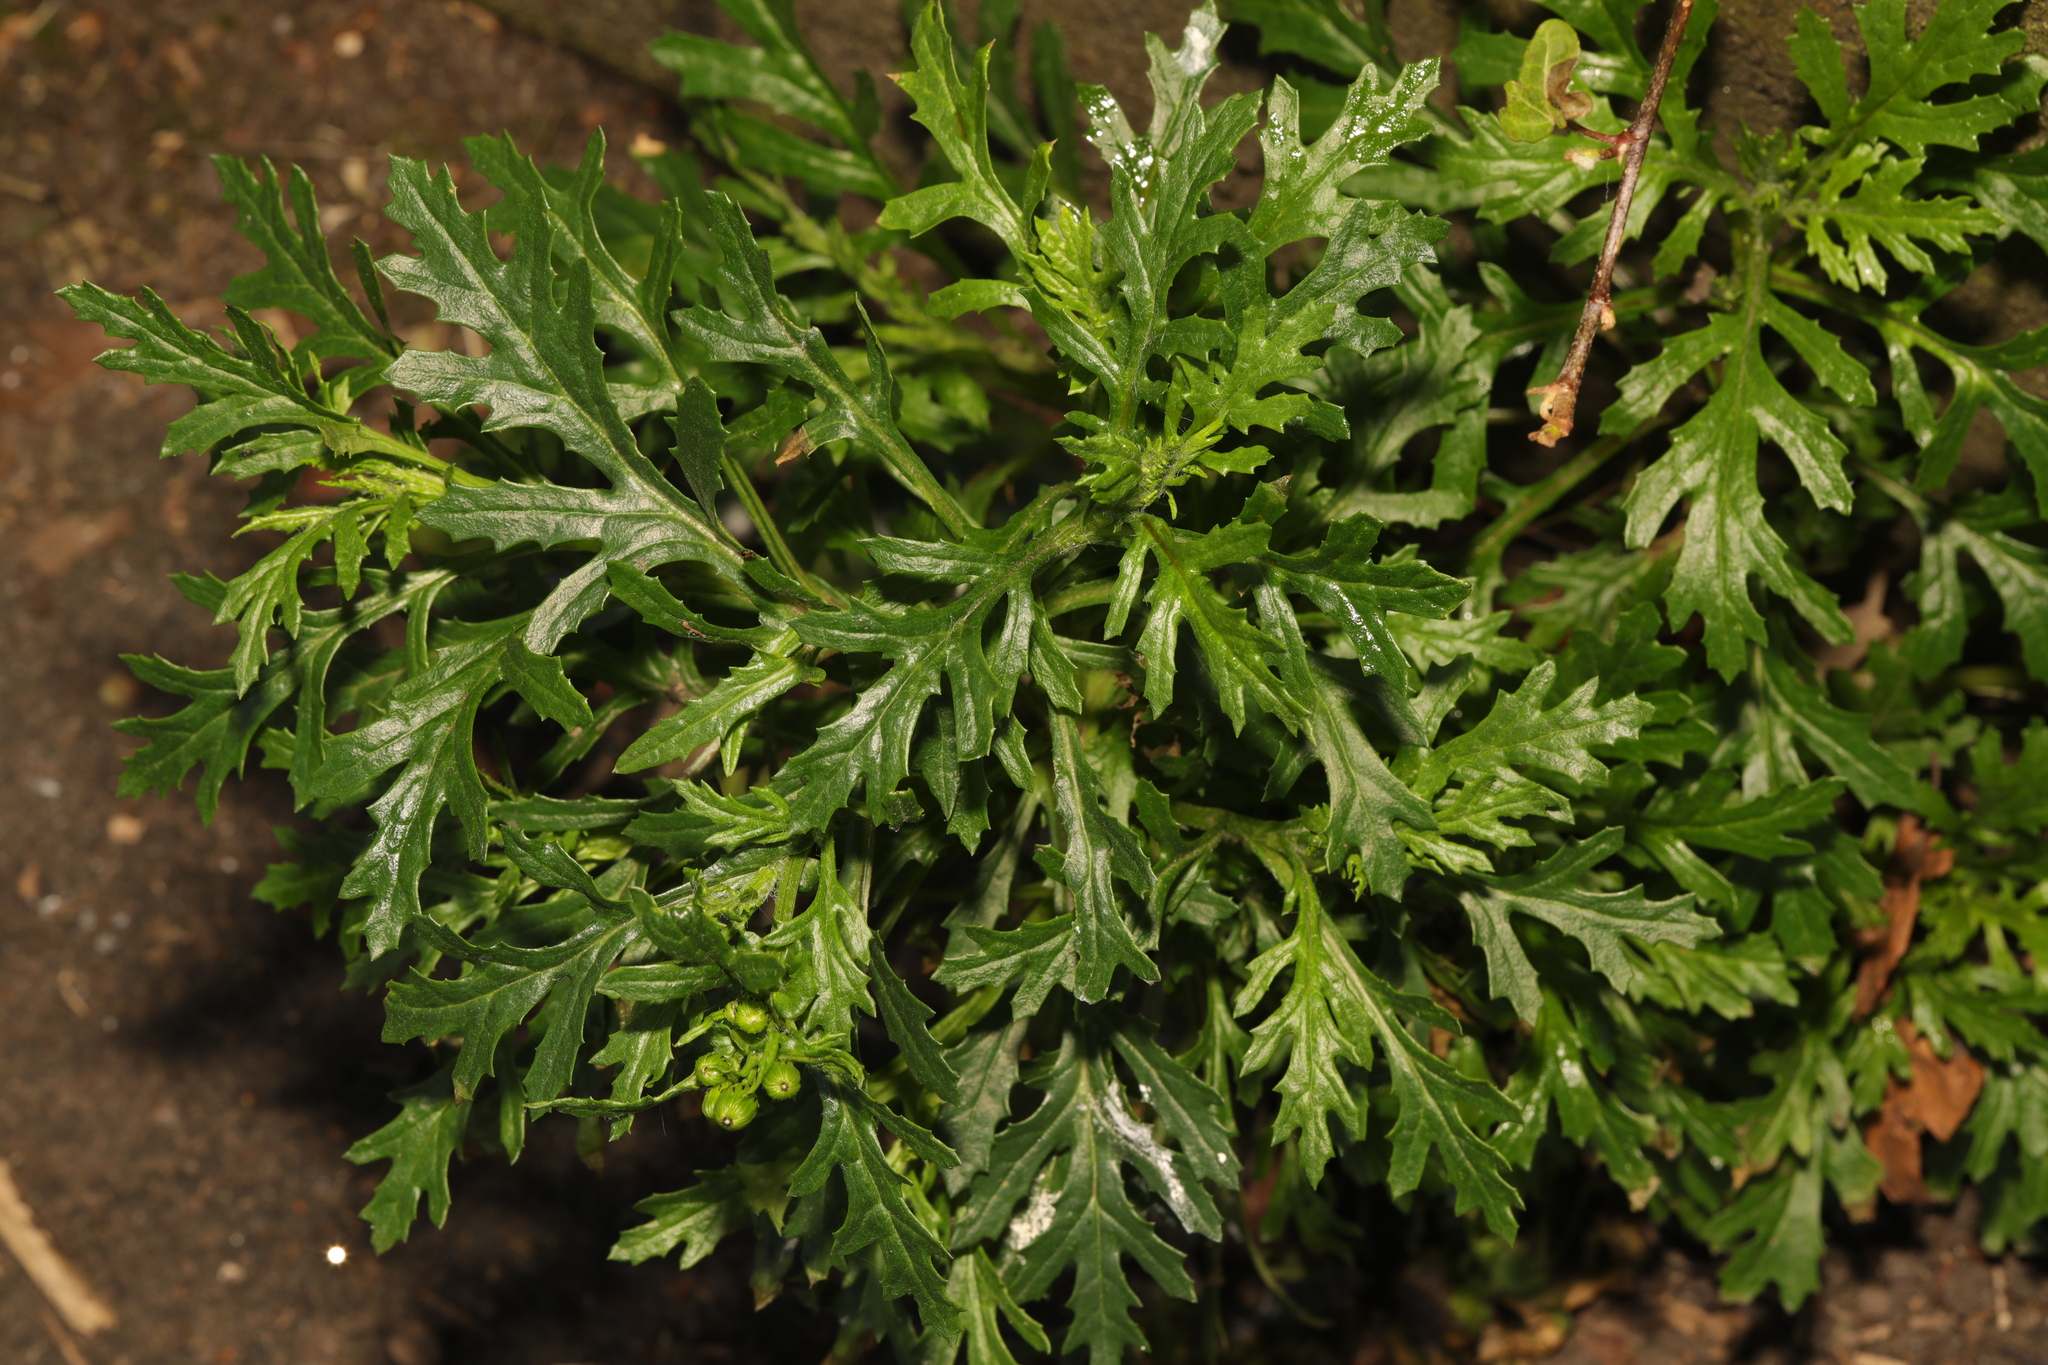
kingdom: Plantae
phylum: Tracheophyta
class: Magnoliopsida
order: Asterales
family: Asteraceae
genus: Senecio
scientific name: Senecio squalidus
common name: Oxford ragwort
